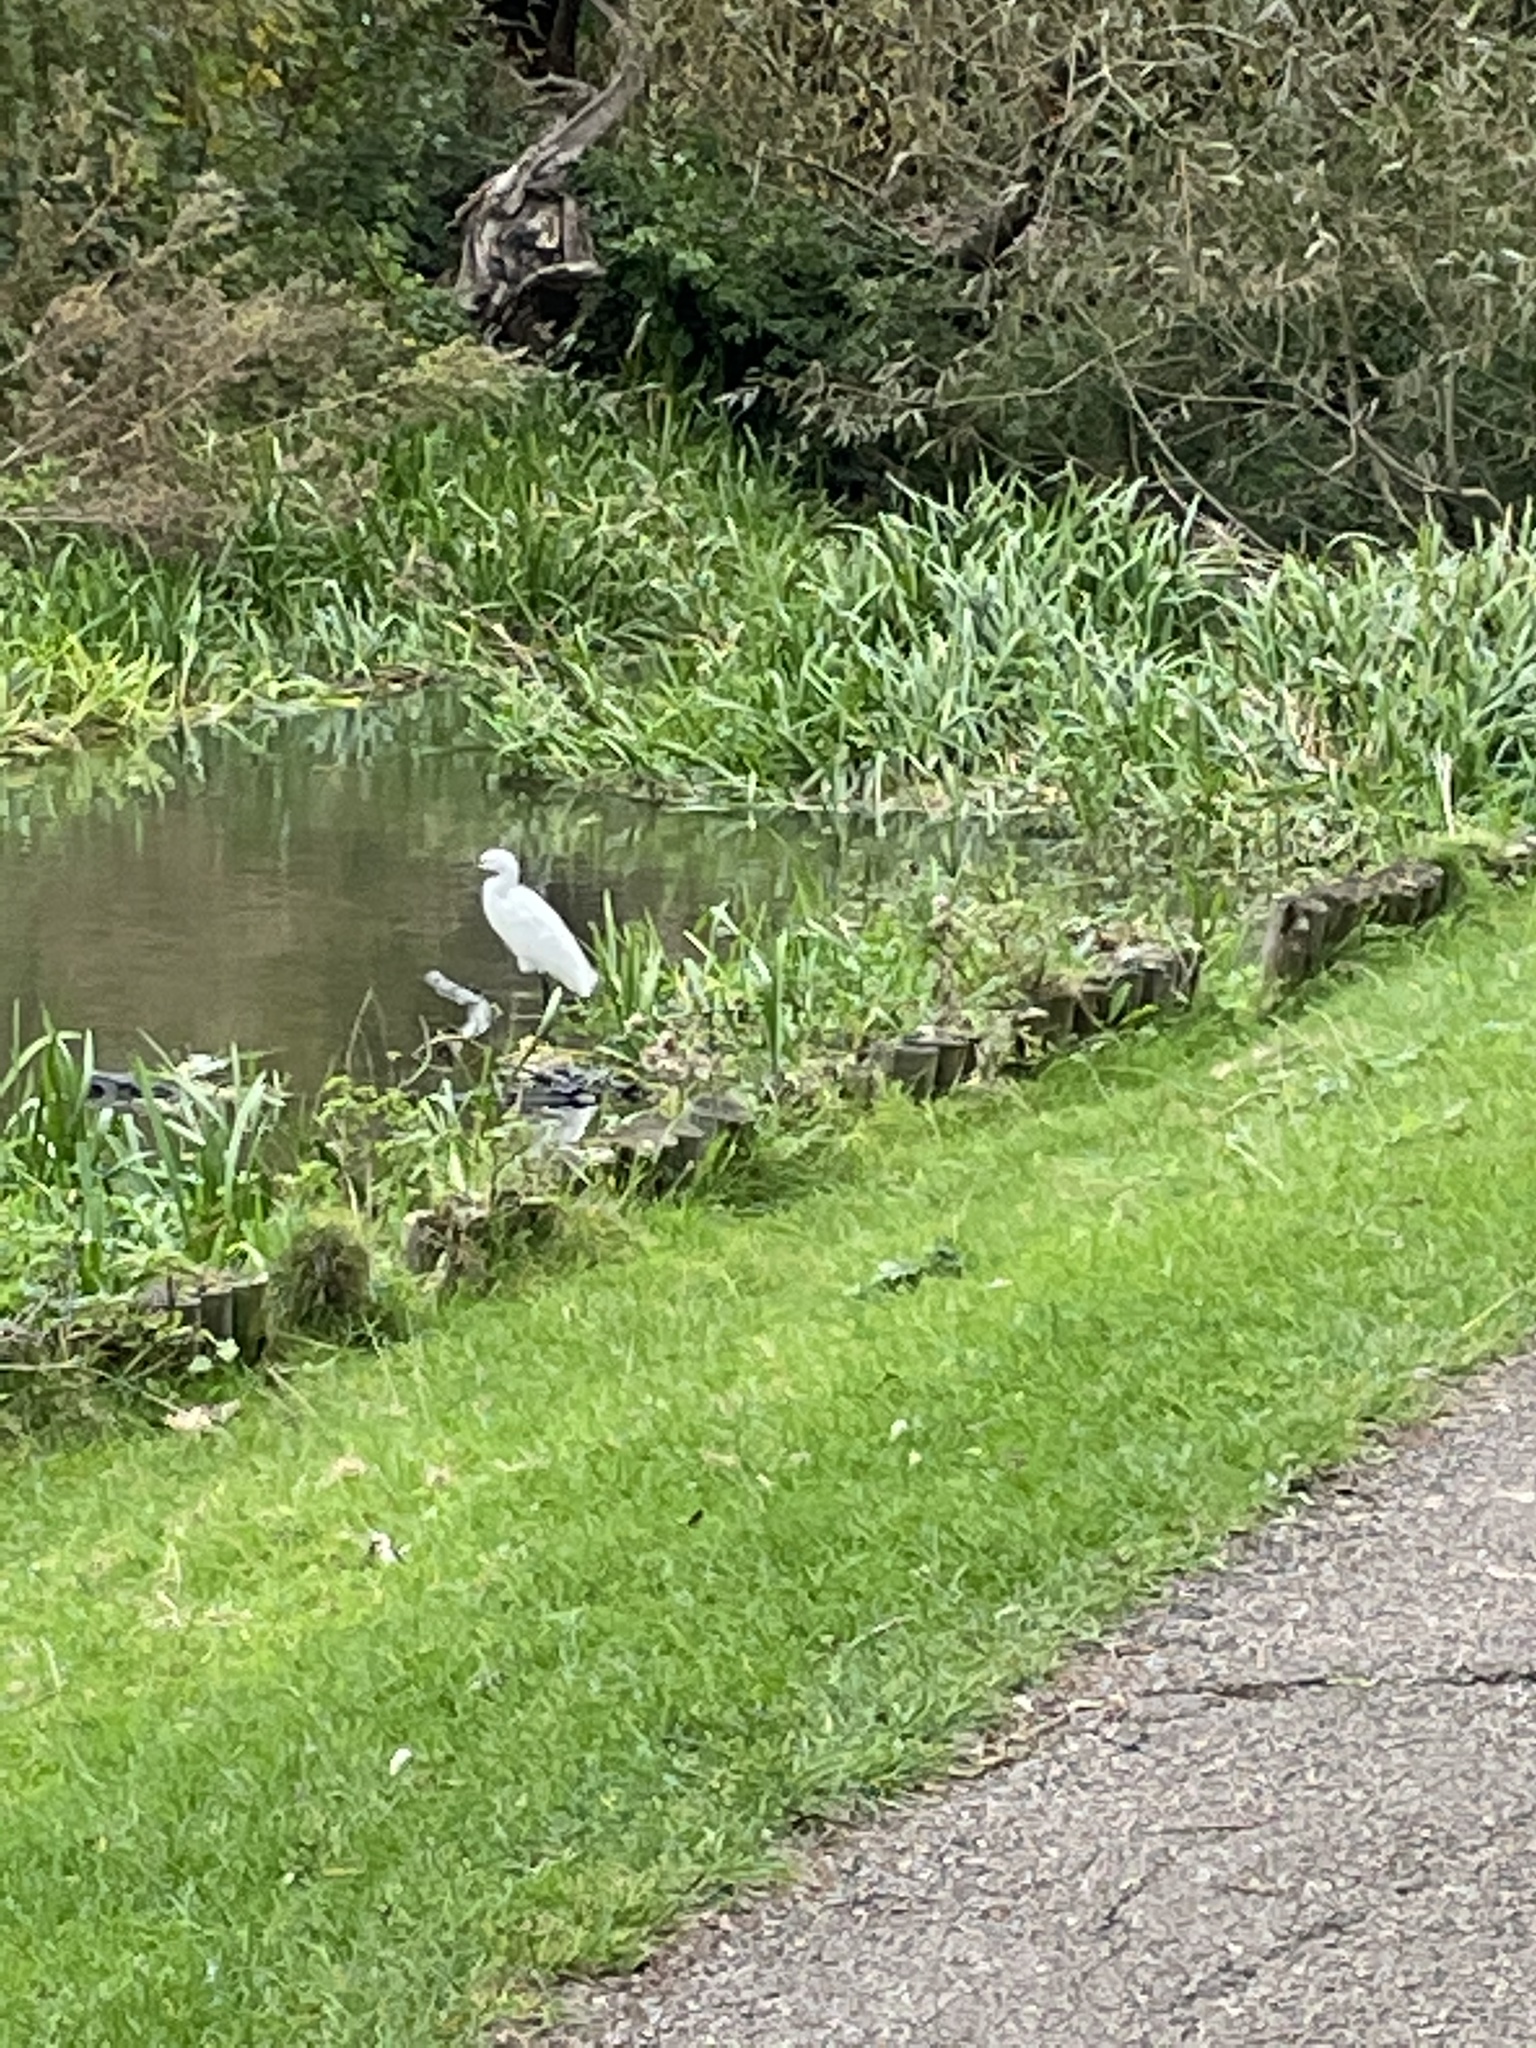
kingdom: Animalia
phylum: Chordata
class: Aves
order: Pelecaniformes
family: Ardeidae
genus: Egretta
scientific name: Egretta garzetta
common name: Little egret
